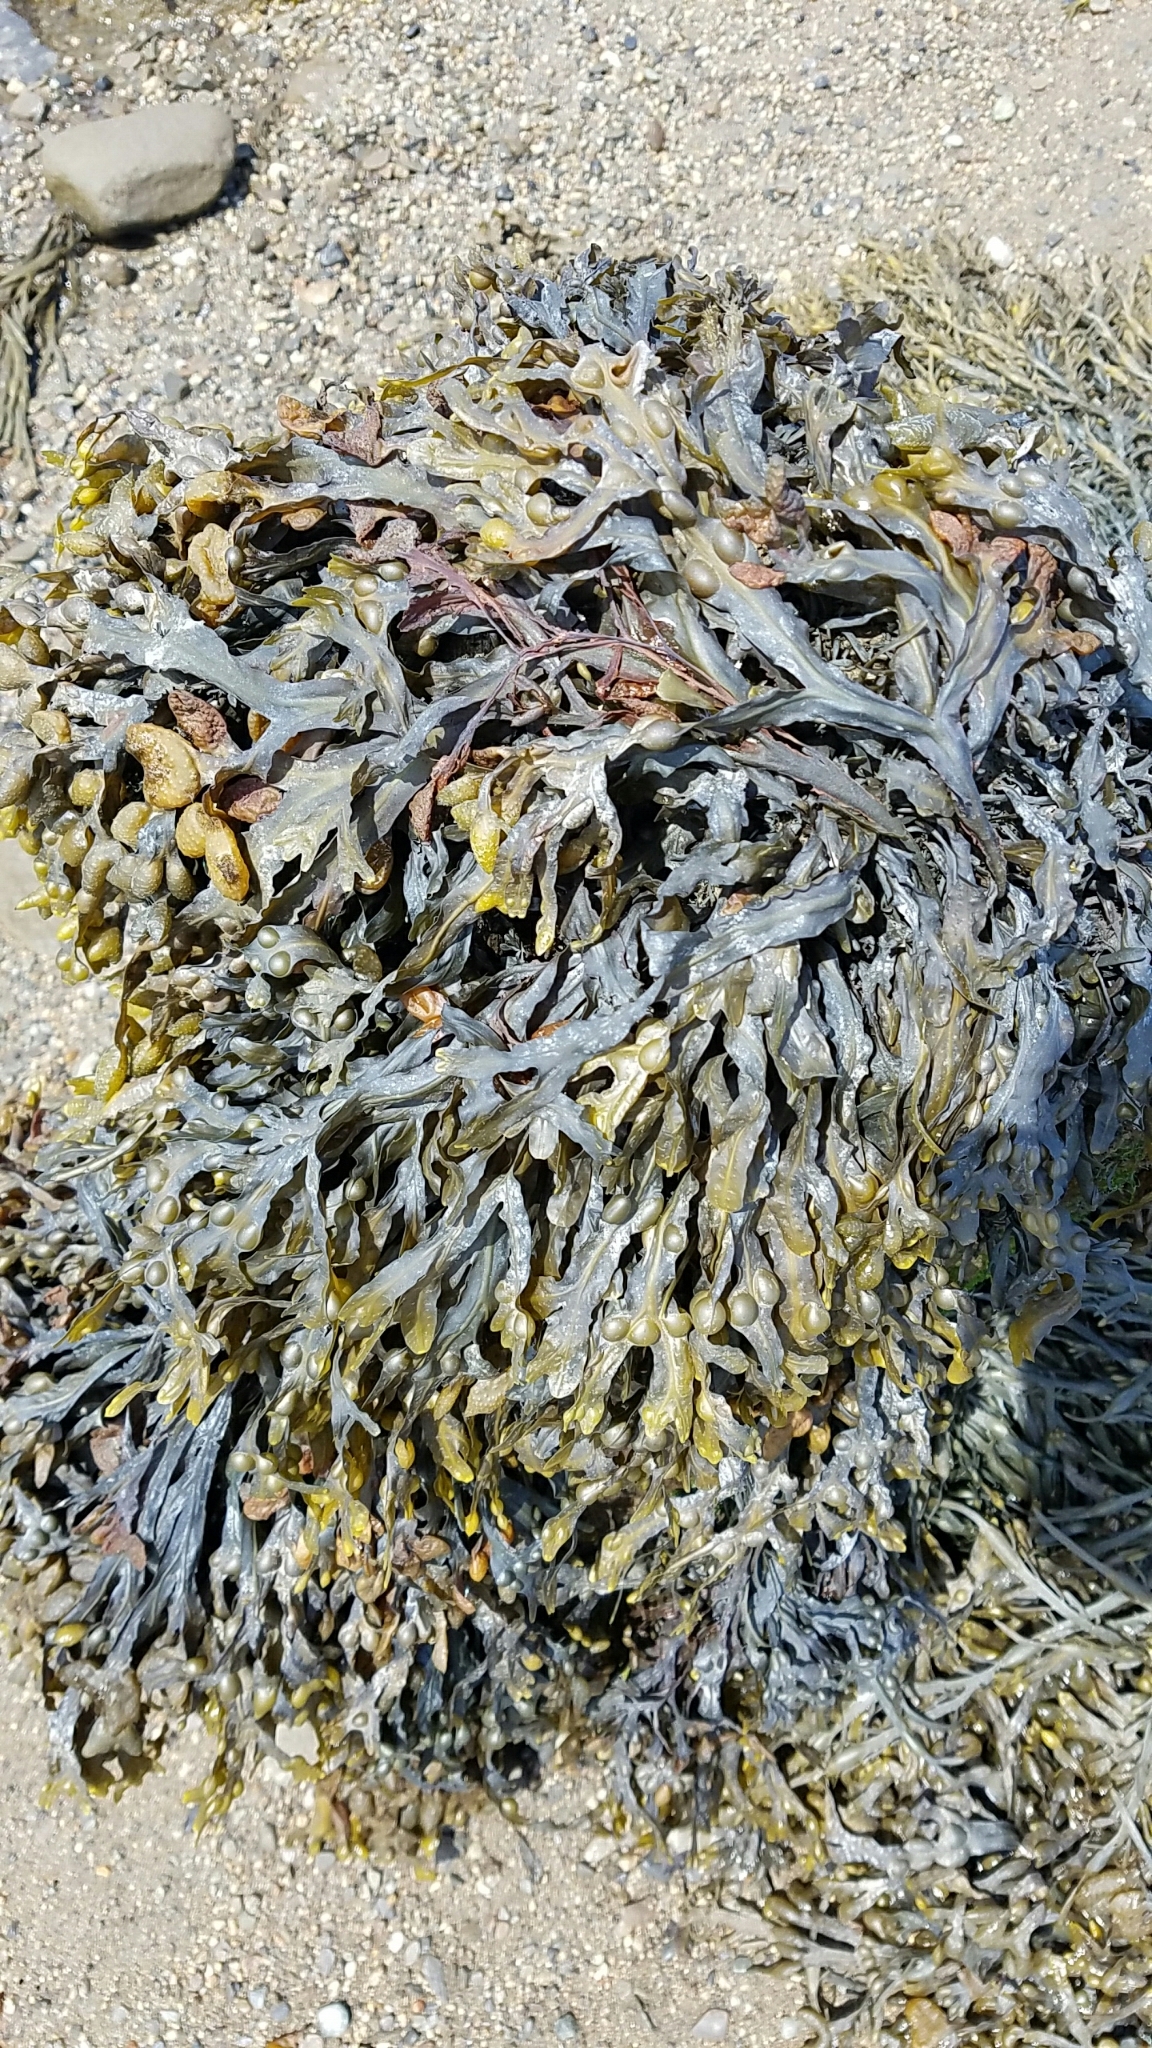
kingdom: Chromista
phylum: Ochrophyta
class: Phaeophyceae
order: Fucales
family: Fucaceae
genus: Fucus
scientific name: Fucus vesiculosus
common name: Bladder wrack
